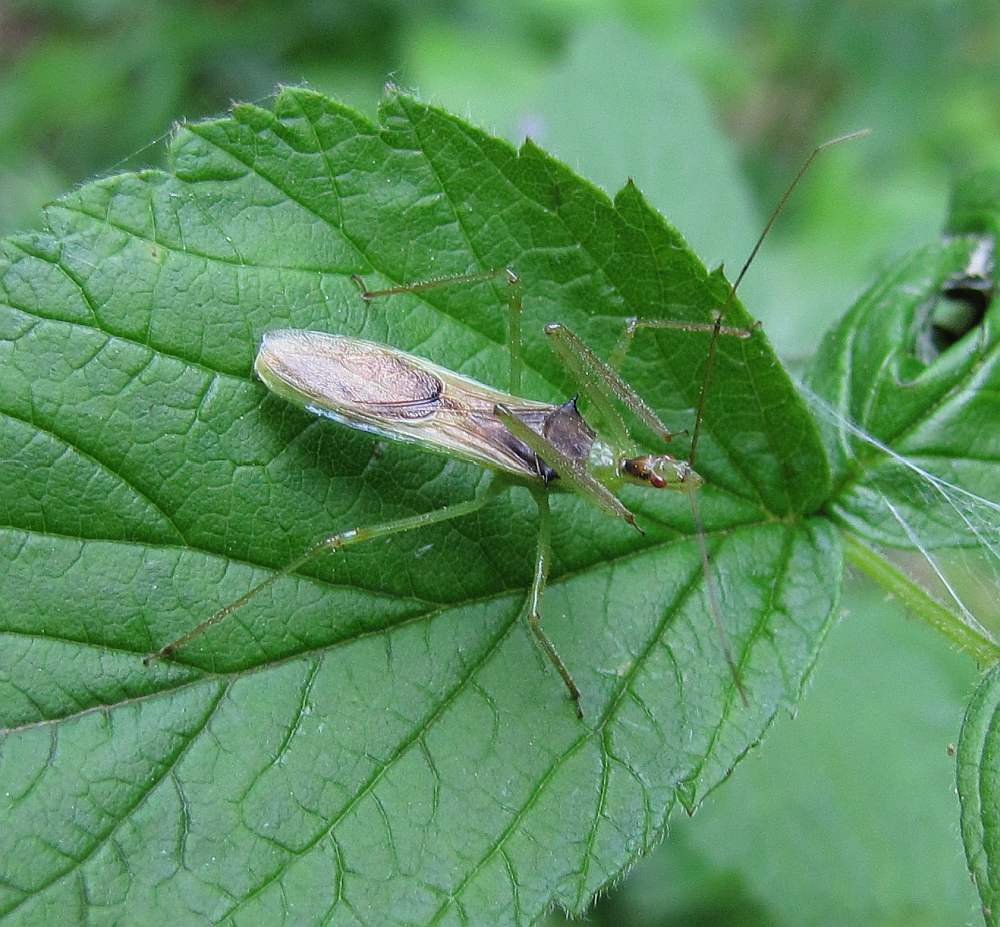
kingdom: Animalia
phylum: Arthropoda
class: Insecta
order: Hemiptera
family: Reduviidae
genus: Zelus
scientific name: Zelus luridus
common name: Pale green assassin bug
